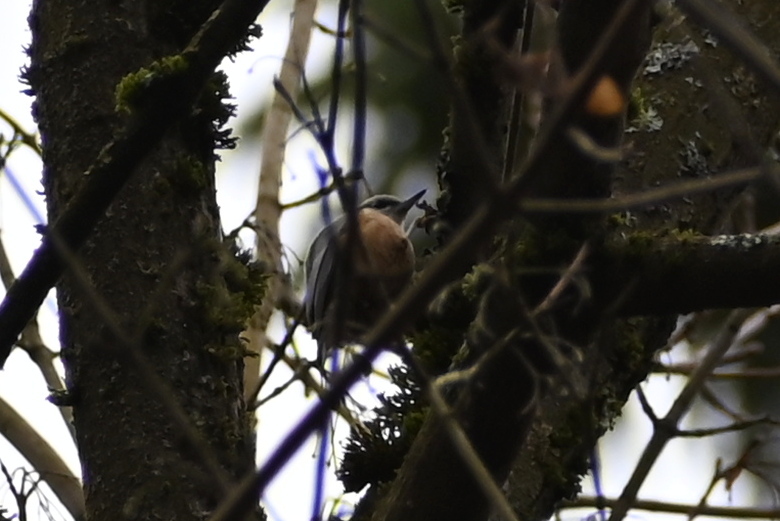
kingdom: Animalia
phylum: Chordata
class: Aves
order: Passeriformes
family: Sittidae
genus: Sitta
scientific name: Sitta europaea
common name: Eurasian nuthatch
